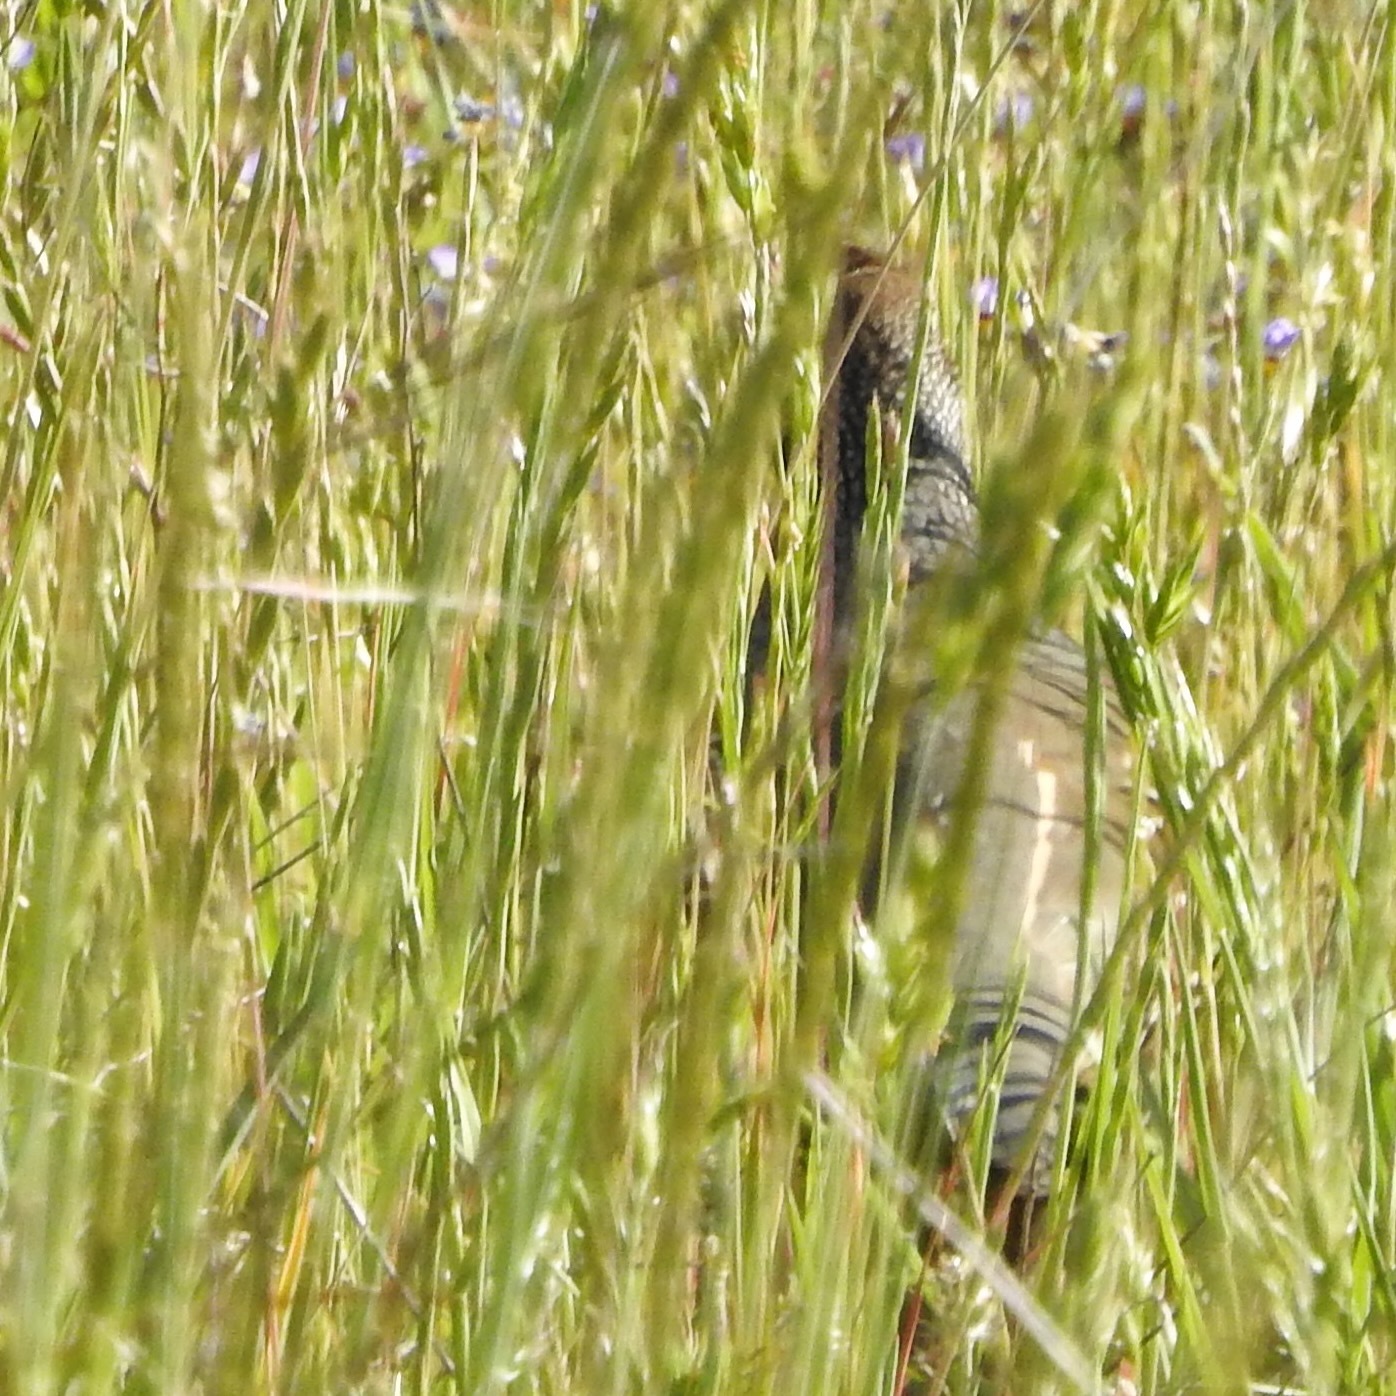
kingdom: Animalia
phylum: Chordata
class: Aves
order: Galliformes
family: Odontophoridae
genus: Callipepla
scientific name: Callipepla californica
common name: California quail
